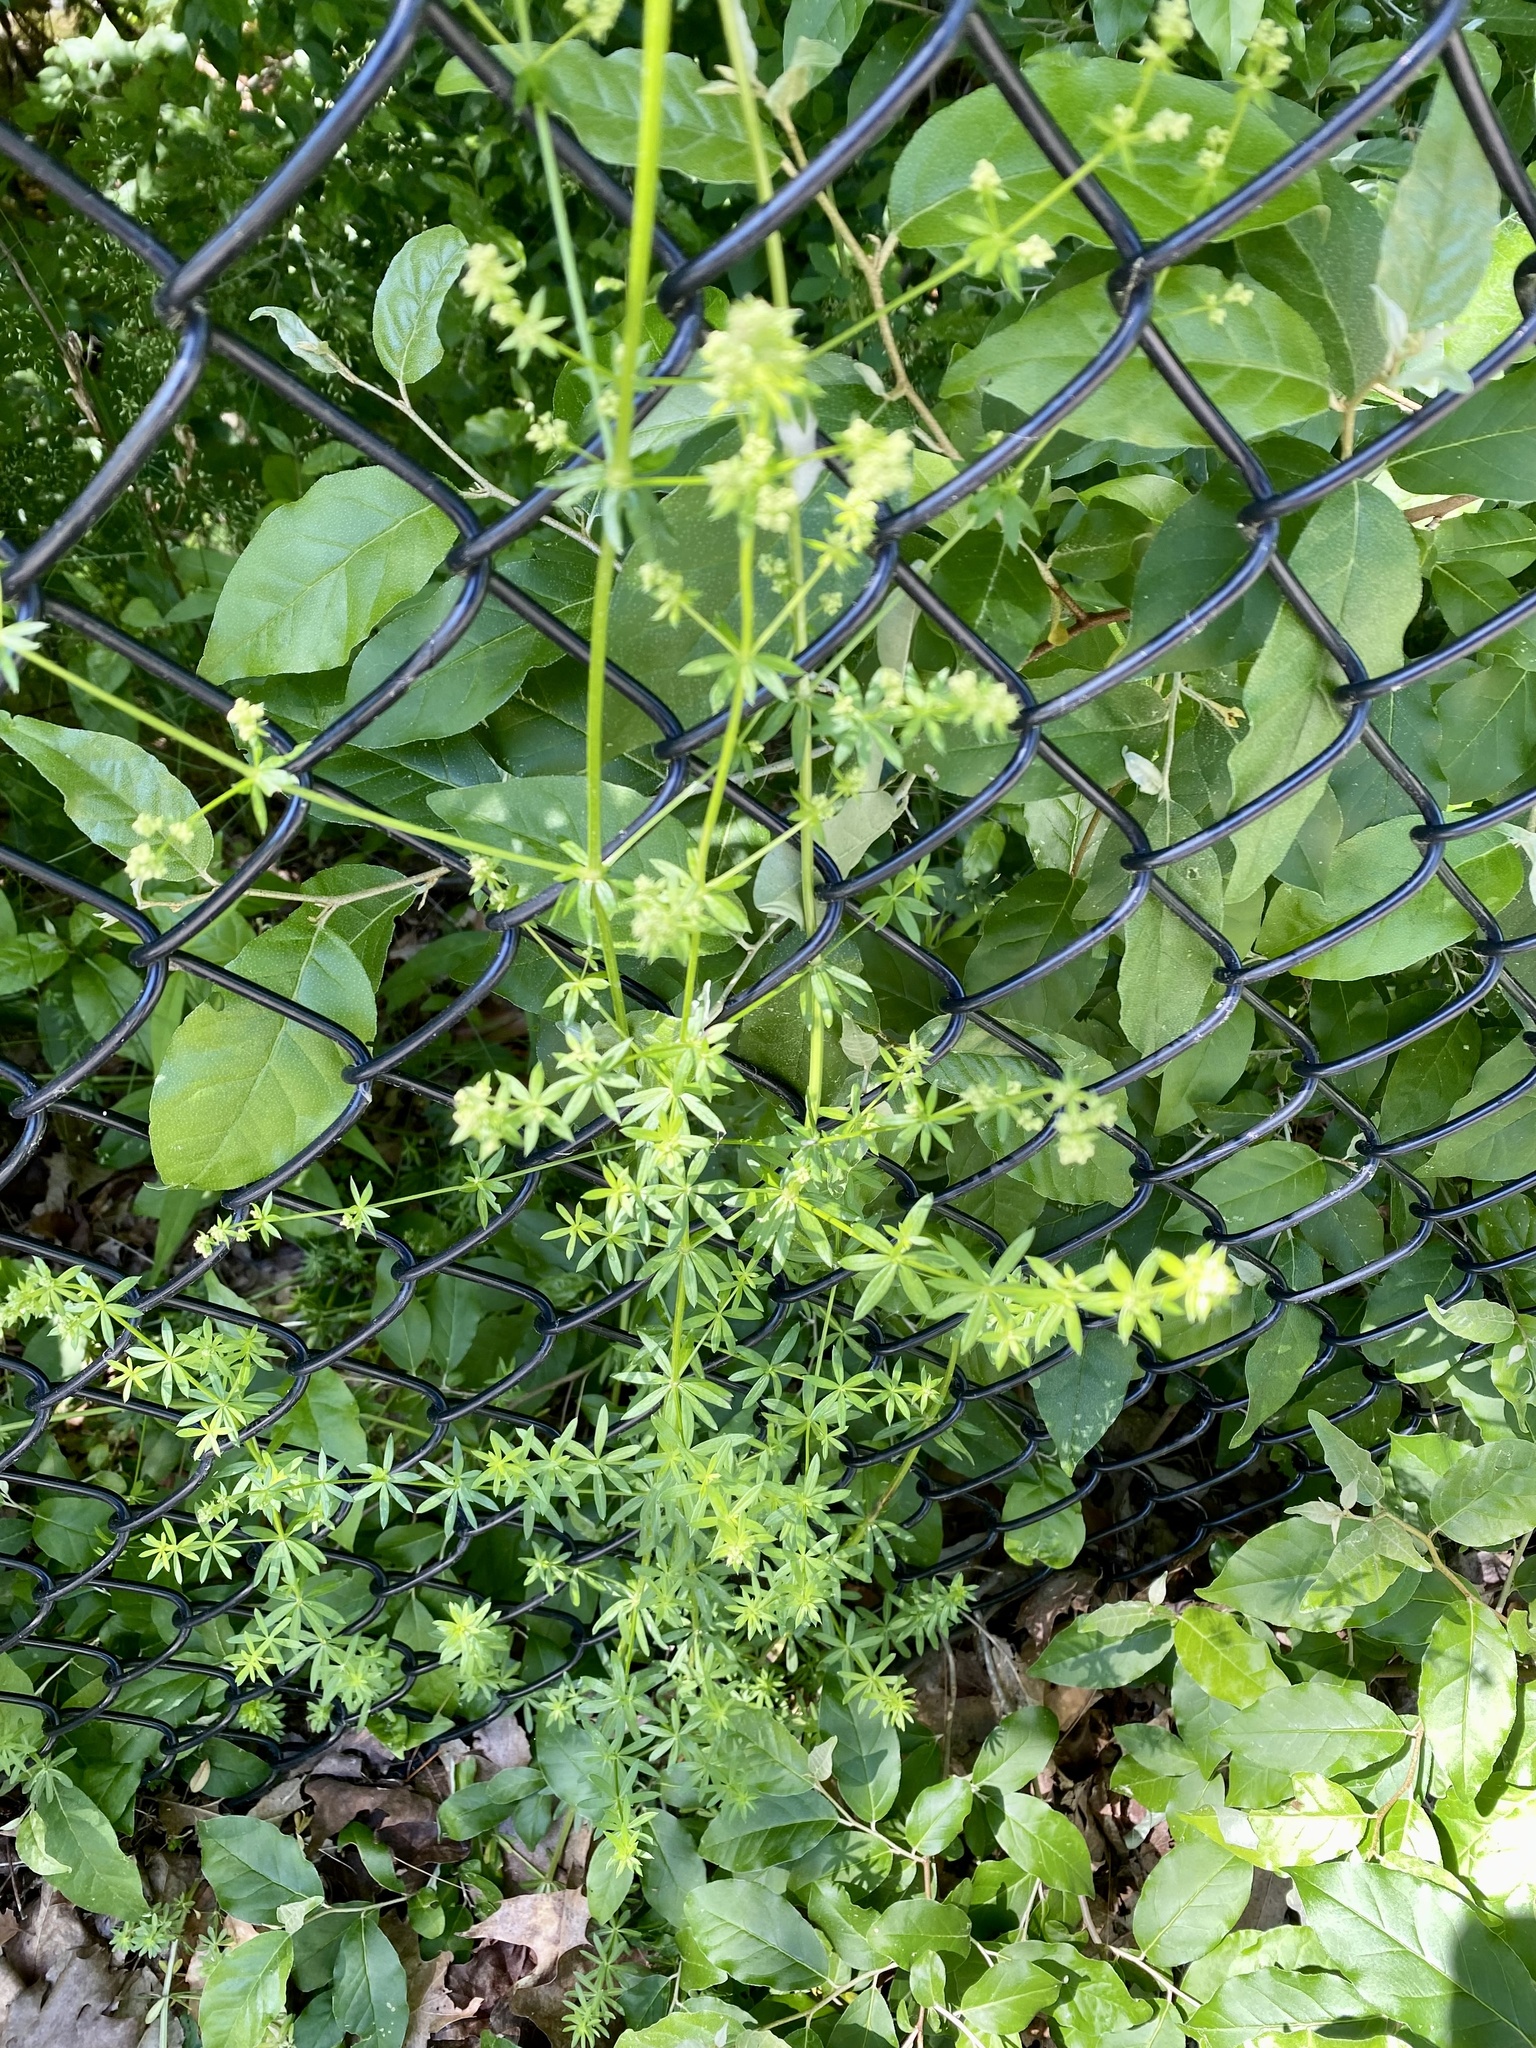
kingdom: Plantae
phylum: Tracheophyta
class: Magnoliopsida
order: Gentianales
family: Rubiaceae
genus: Galium
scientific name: Galium mollugo
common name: Hedge bedstraw
